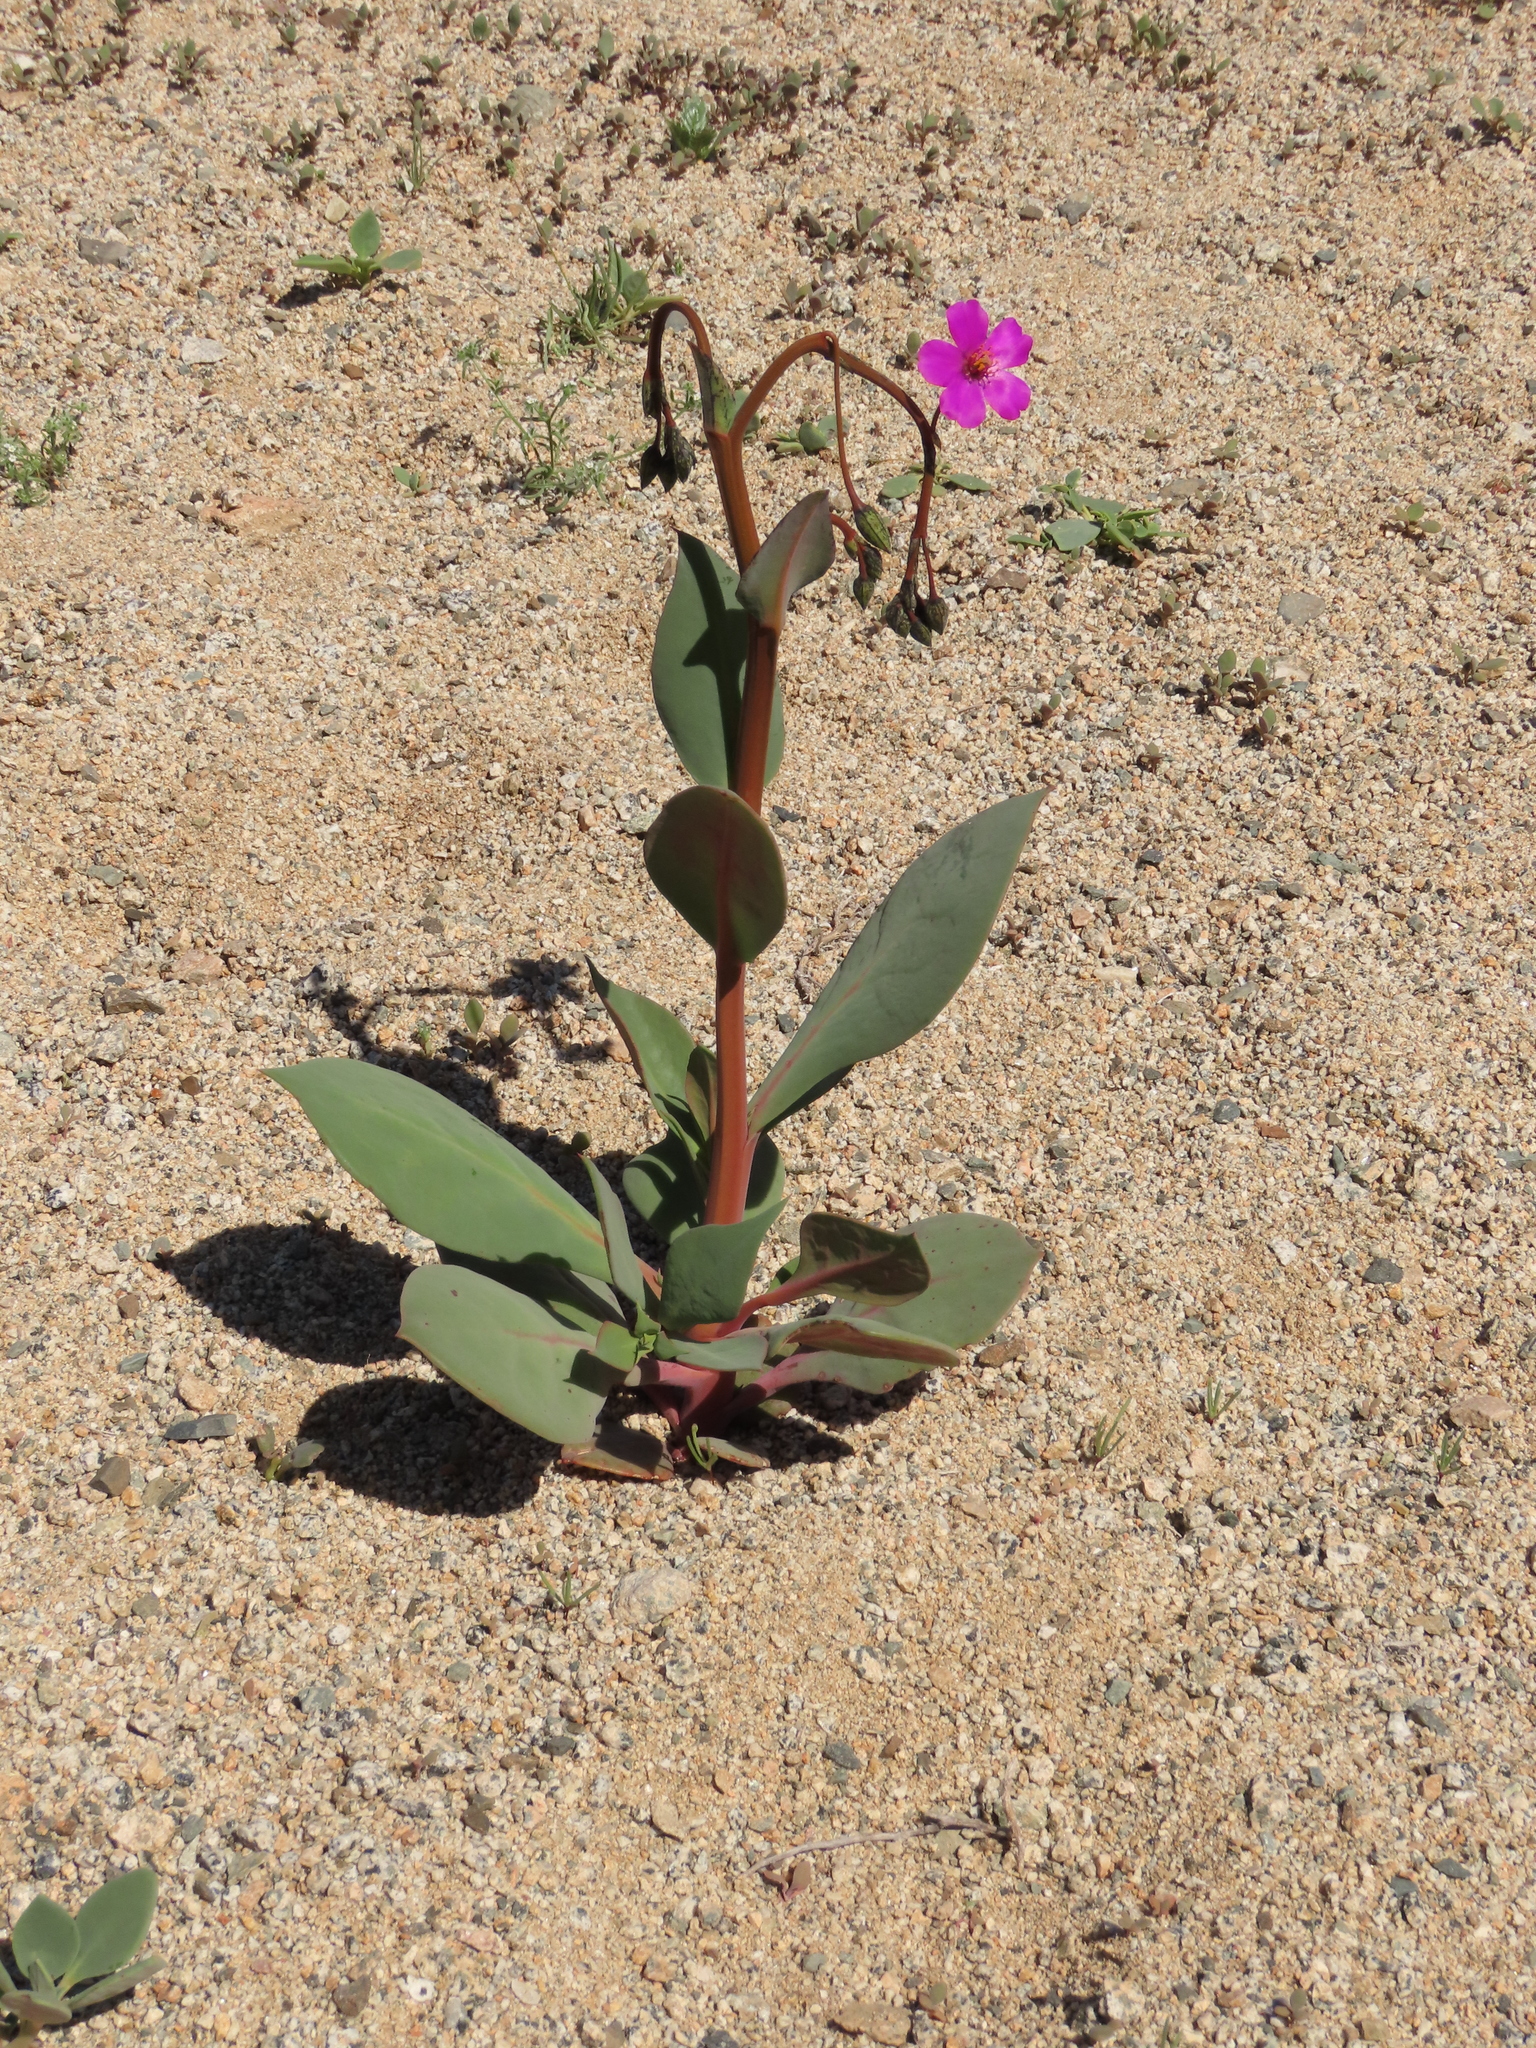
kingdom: Plantae
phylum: Tracheophyta
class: Magnoliopsida
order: Caryophyllales
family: Montiaceae
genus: Cistanthe
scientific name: Cistanthe cachinalensis
